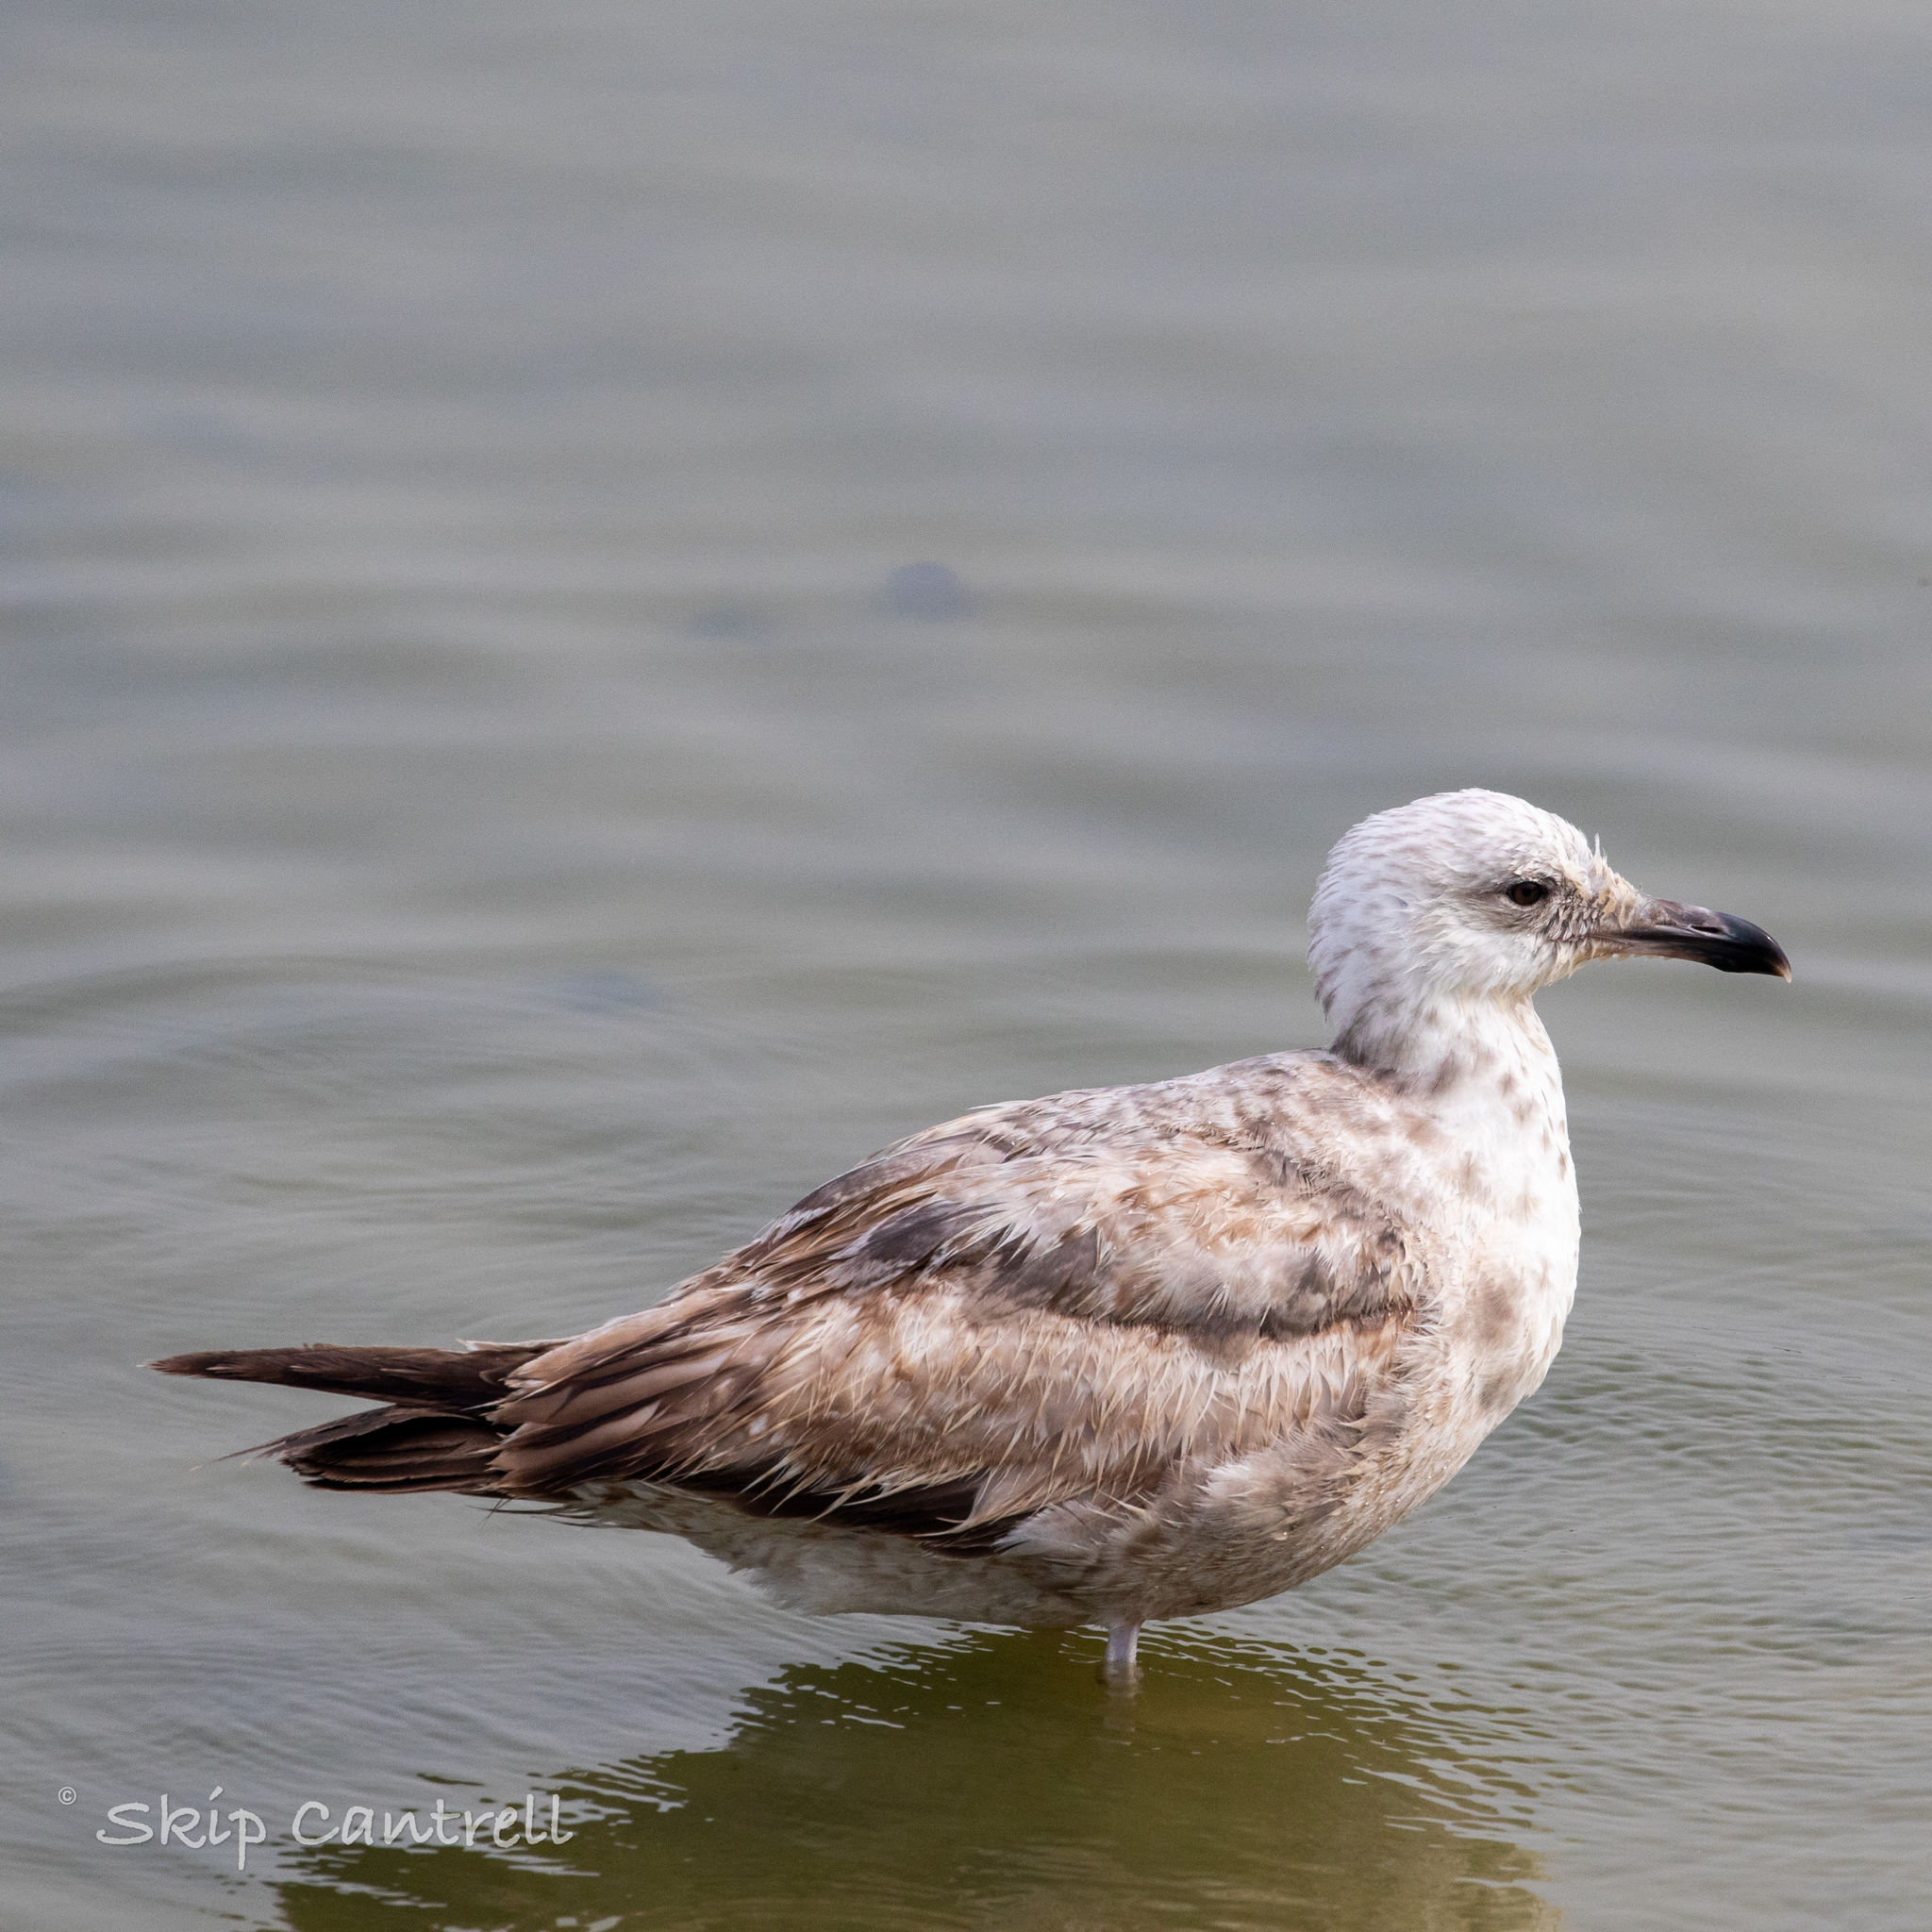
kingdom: Animalia
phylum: Chordata
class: Aves
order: Charadriiformes
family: Laridae
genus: Larus
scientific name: Larus argentatus
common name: Herring gull
